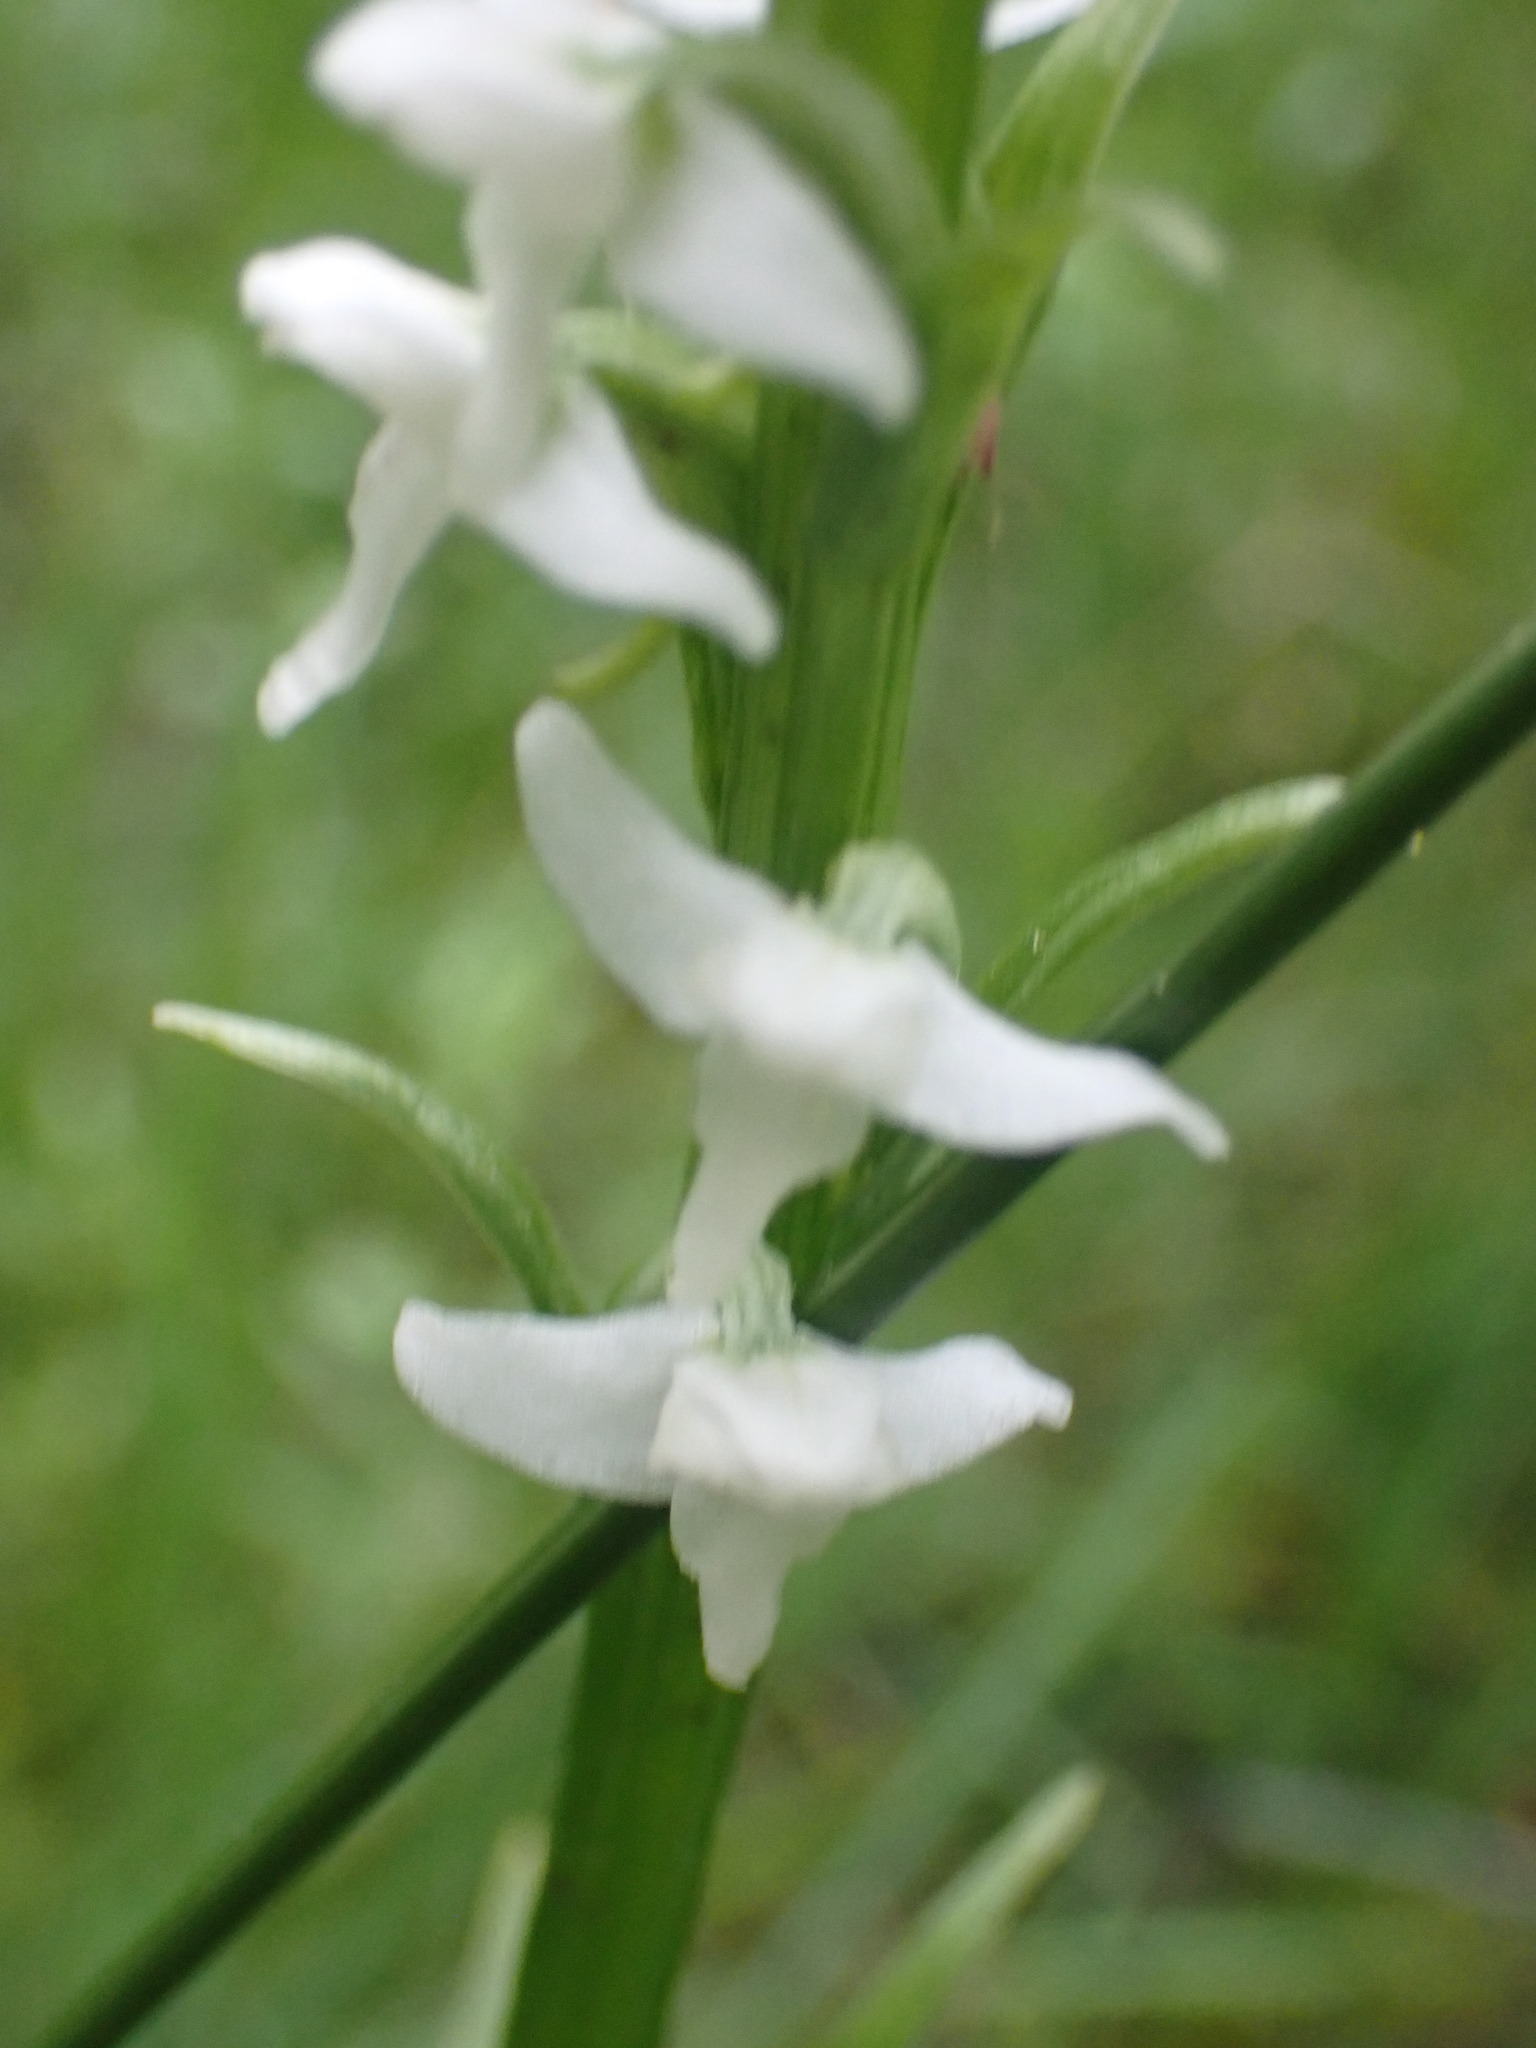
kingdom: Plantae
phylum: Tracheophyta
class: Liliopsida
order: Asparagales
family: Orchidaceae
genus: Platanthera
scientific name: Platanthera dilatata
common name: Bog candles
